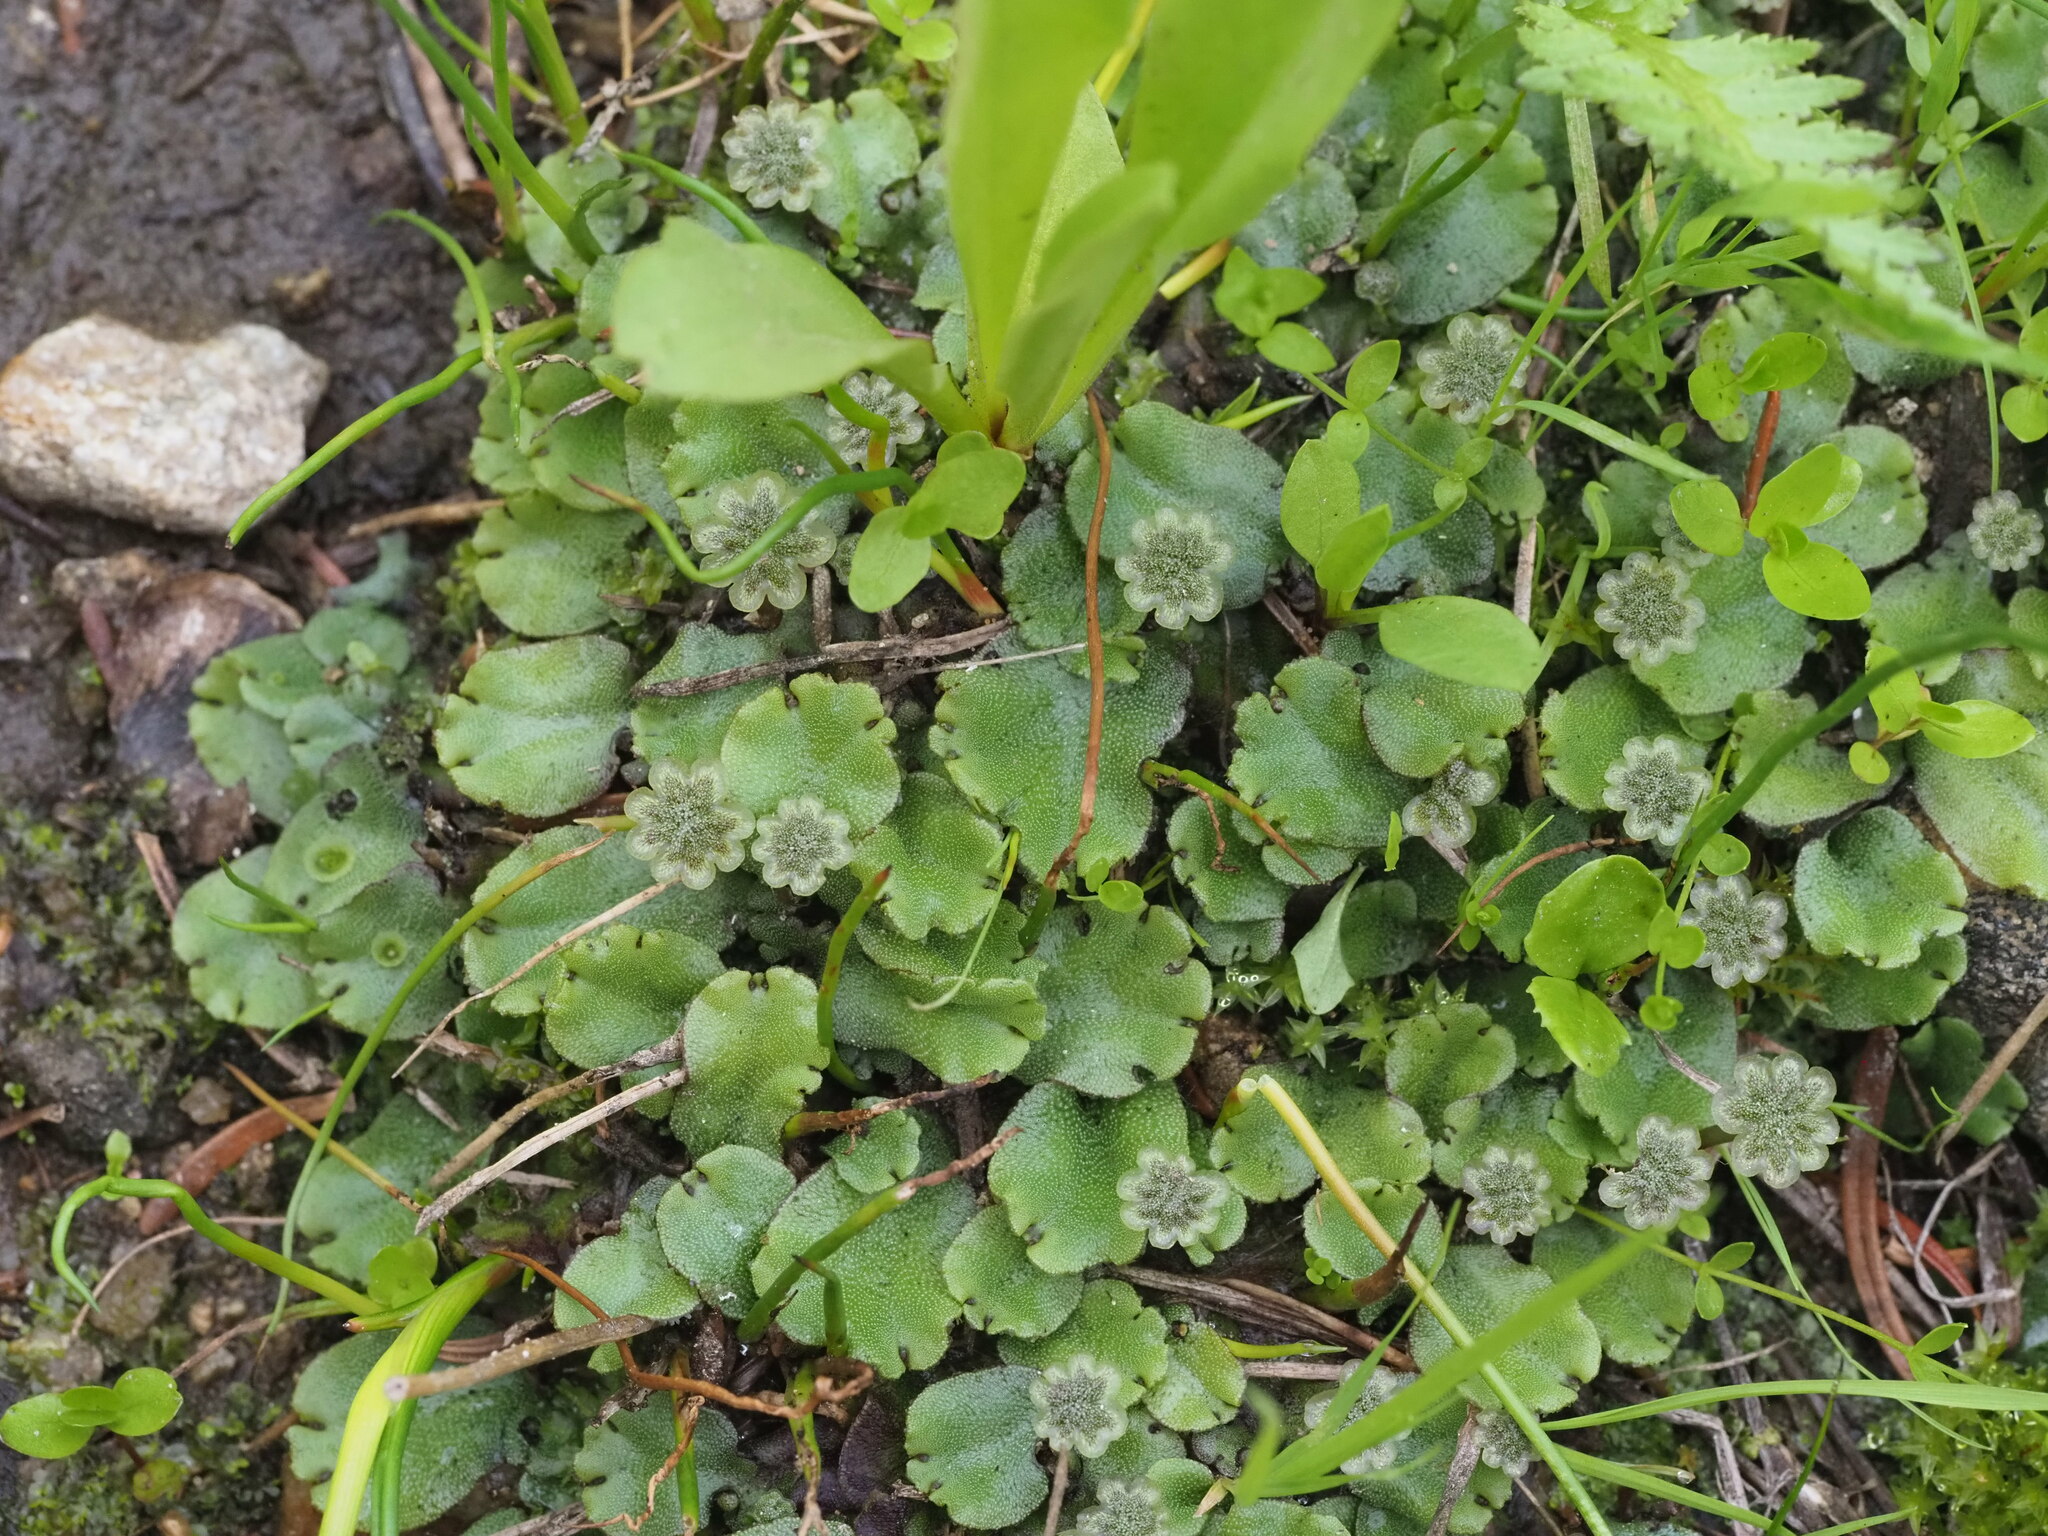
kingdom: Plantae
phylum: Marchantiophyta
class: Marchantiopsida
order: Marchantiales
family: Marchantiaceae
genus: Marchantia
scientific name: Marchantia polymorpha
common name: Common liverwort
